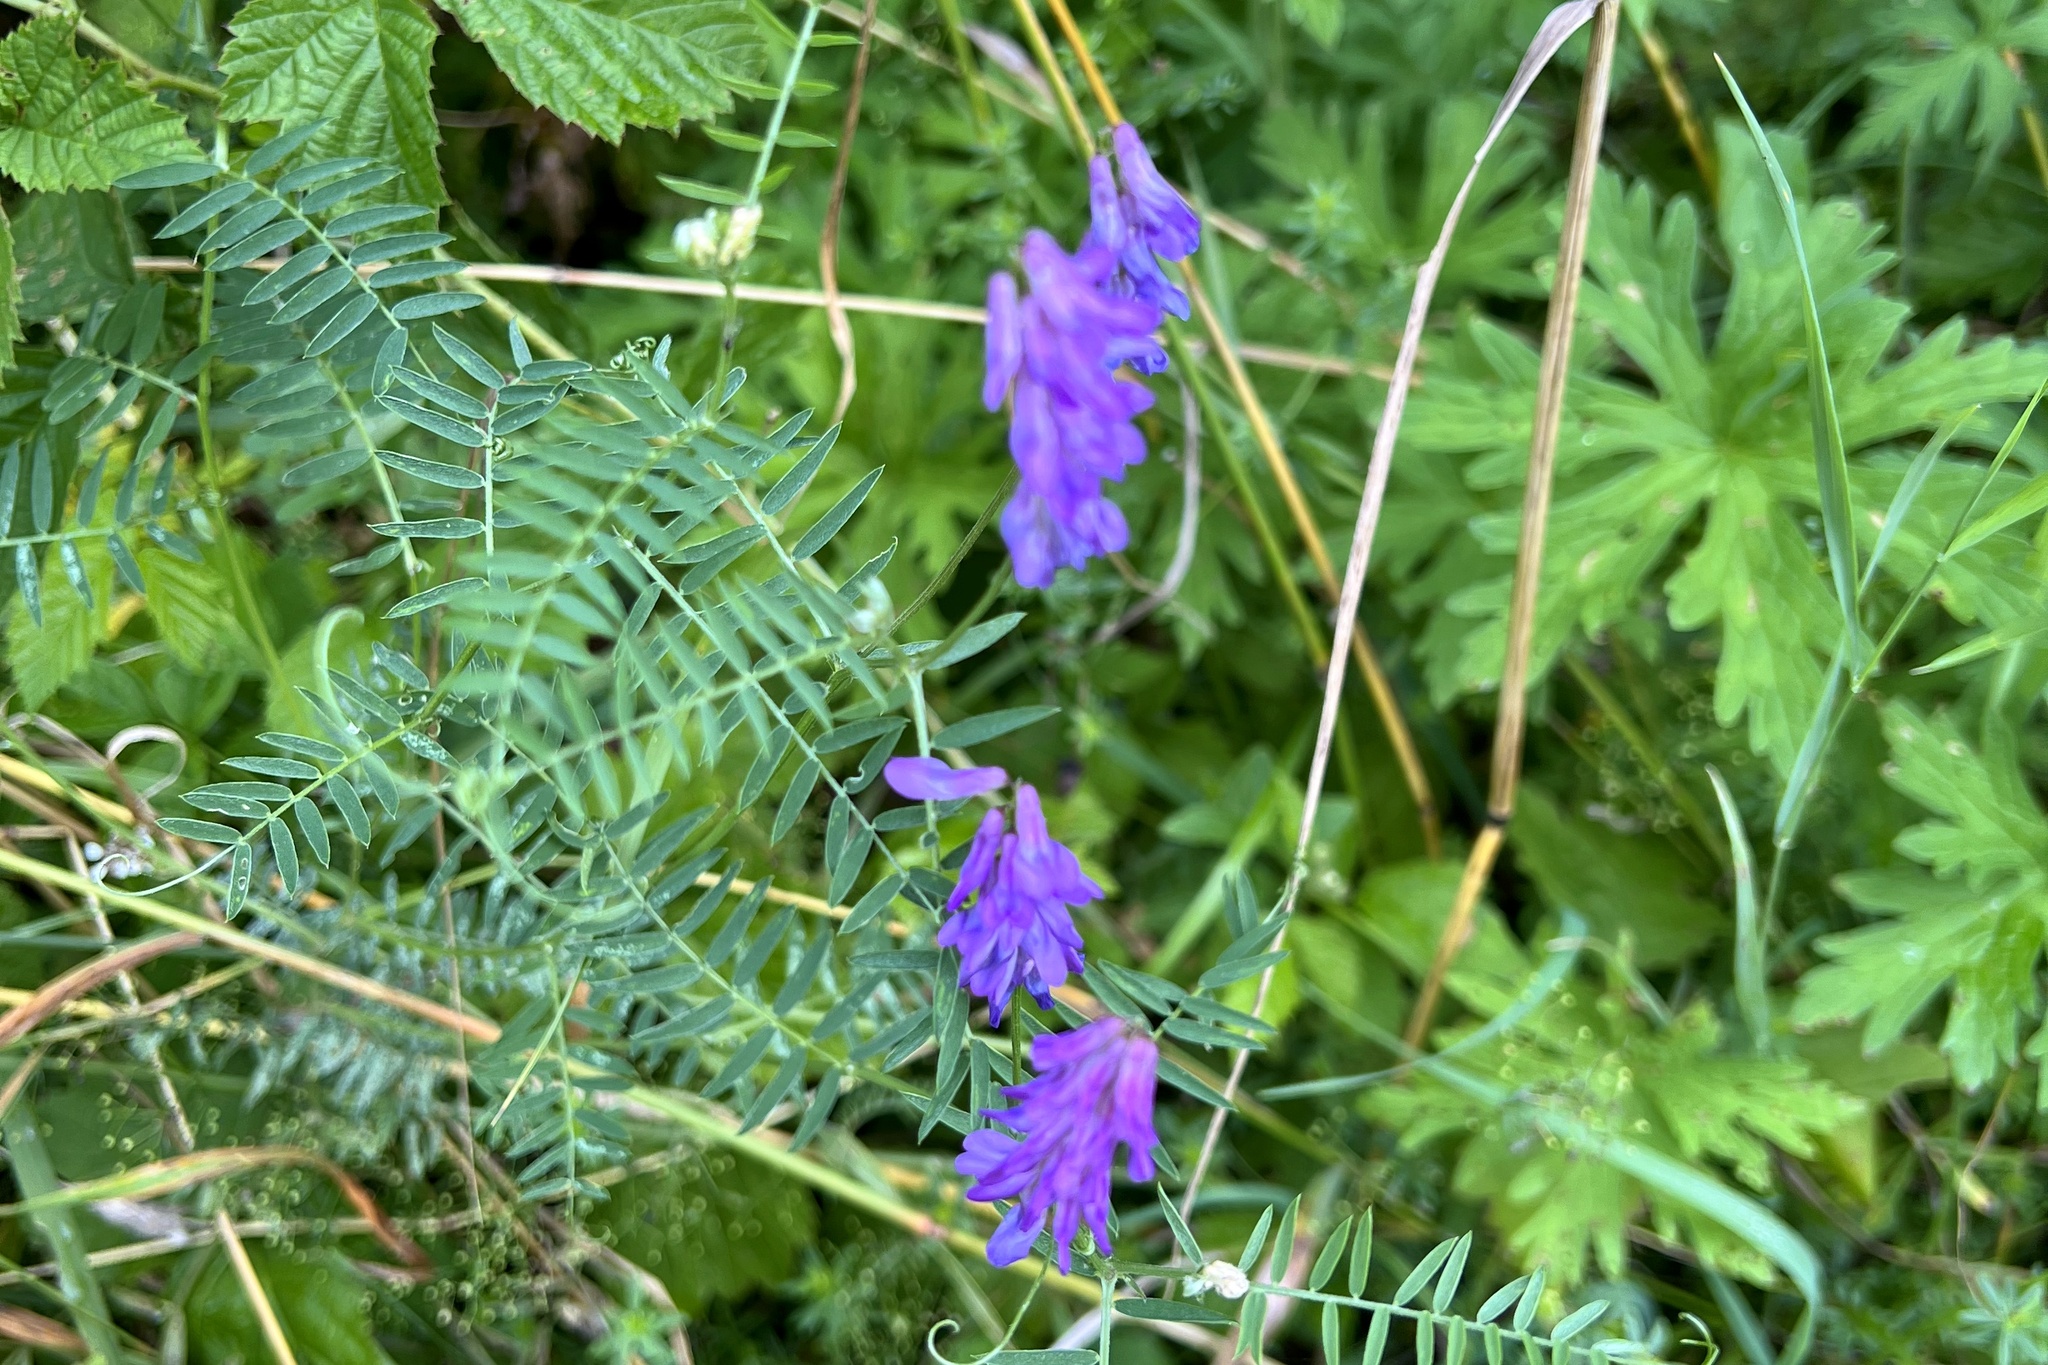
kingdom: Plantae
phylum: Tracheophyta
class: Magnoliopsida
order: Fabales
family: Fabaceae
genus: Vicia
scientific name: Vicia cracca
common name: Bird vetch
